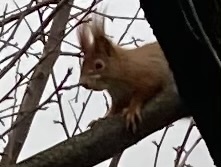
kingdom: Animalia
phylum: Chordata
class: Mammalia
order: Rodentia
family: Sciuridae
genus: Sciurus
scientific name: Sciurus vulgaris
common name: Eurasian red squirrel
